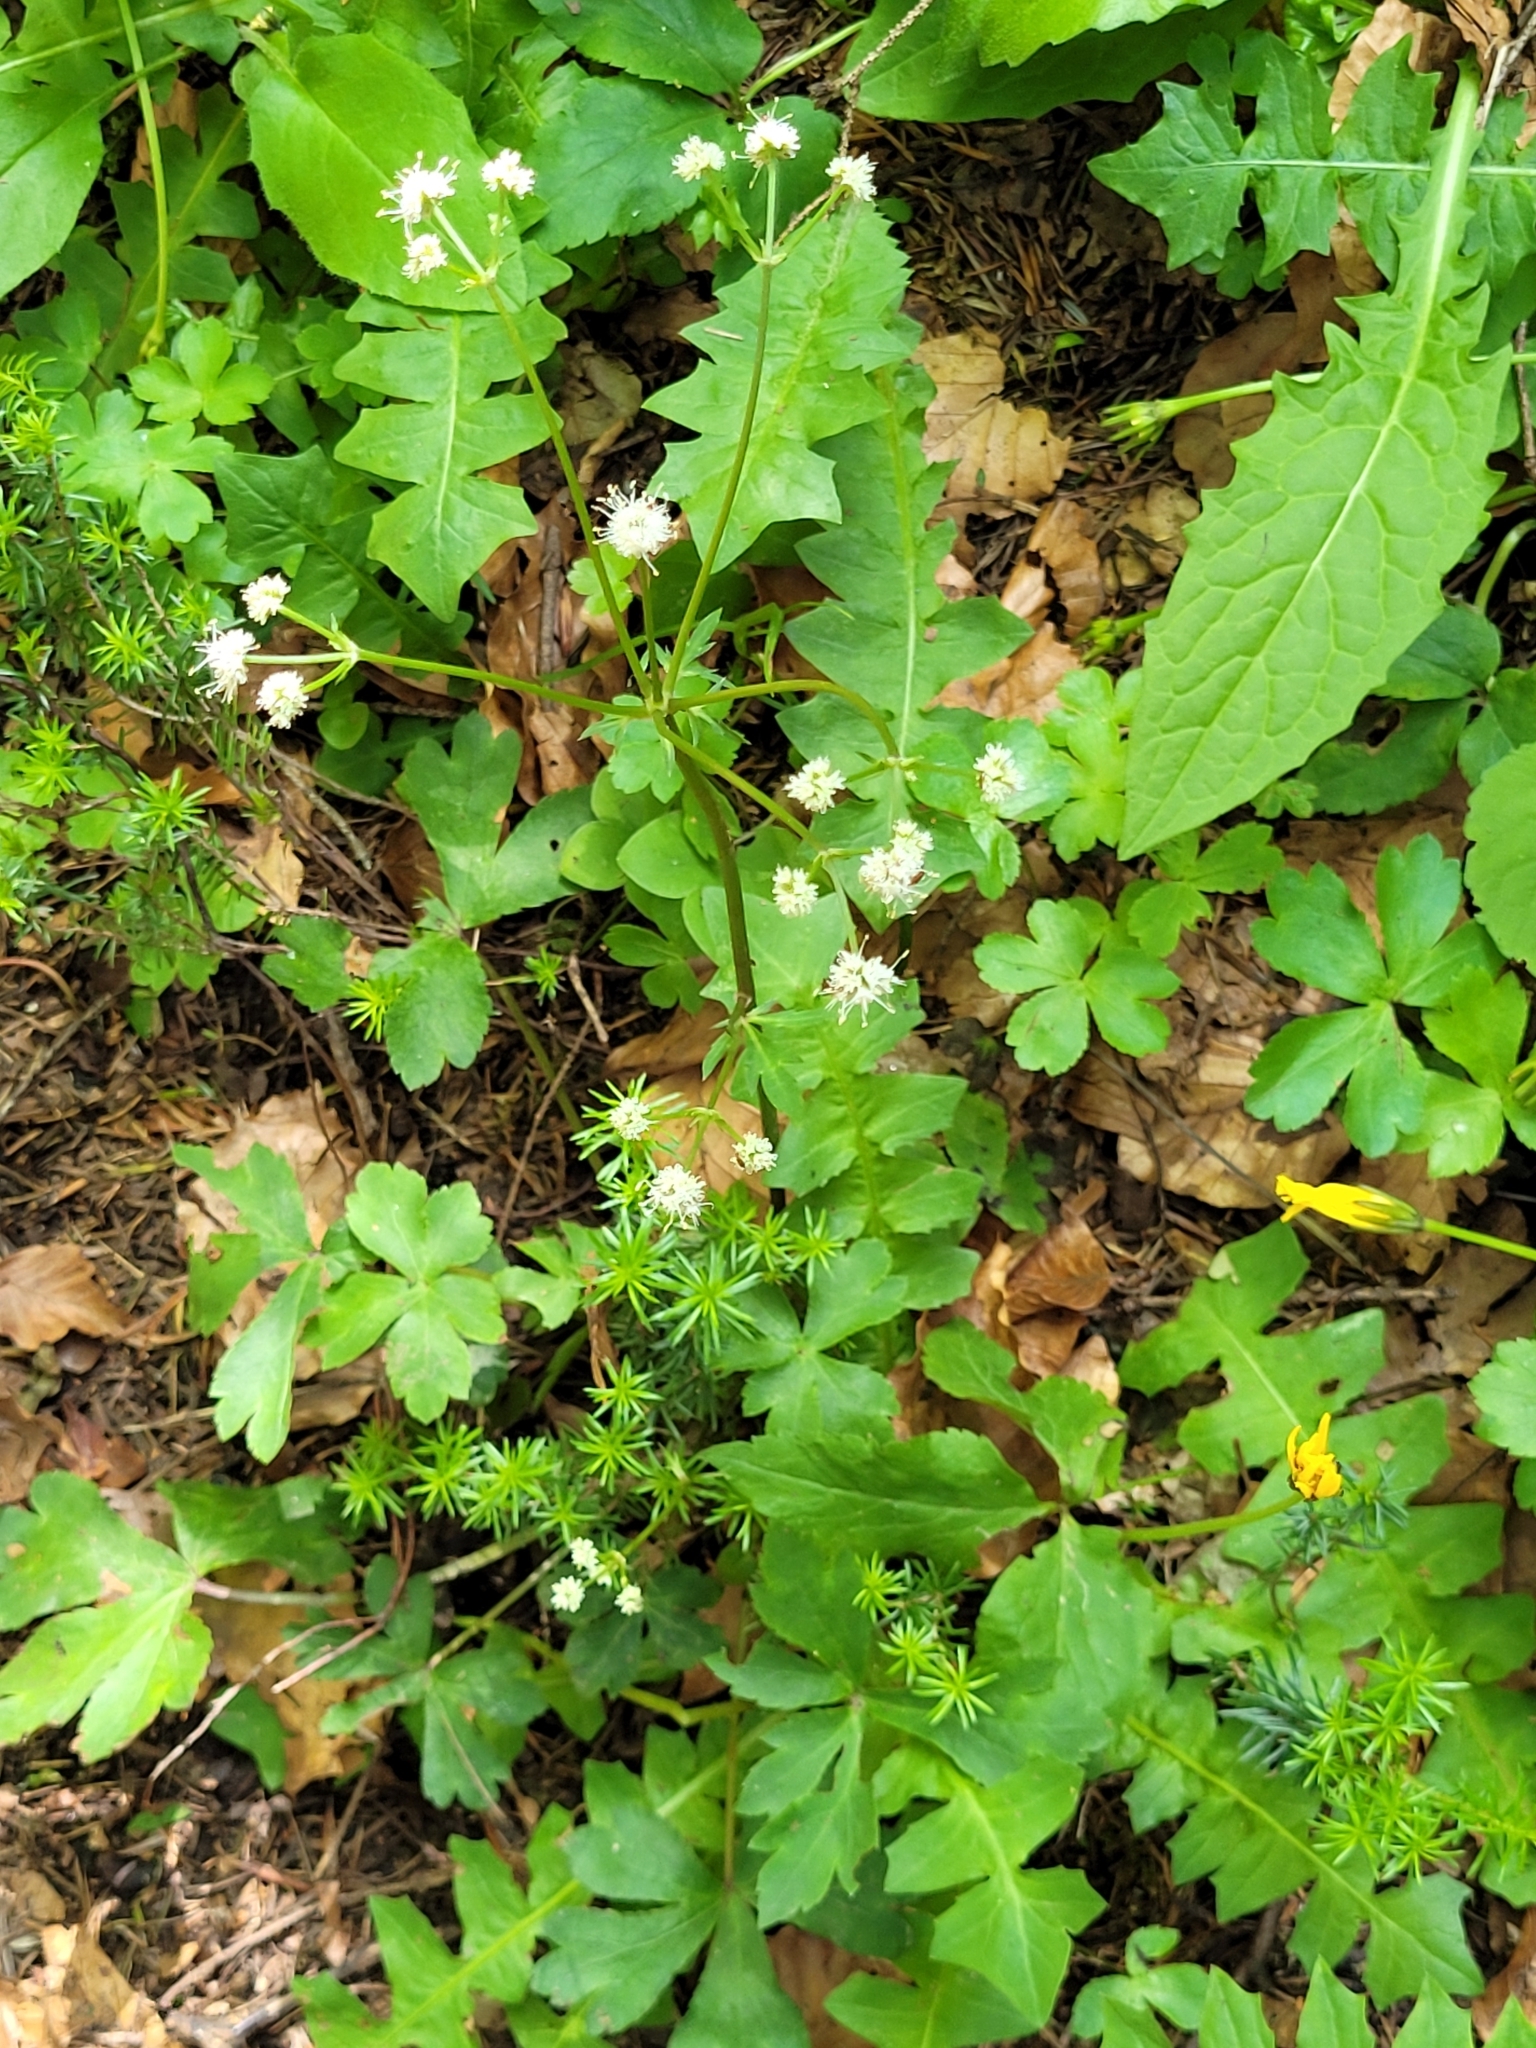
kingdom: Plantae
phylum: Tracheophyta
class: Magnoliopsida
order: Apiales
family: Apiaceae
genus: Sanicula
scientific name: Sanicula europaea
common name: Sanicle
